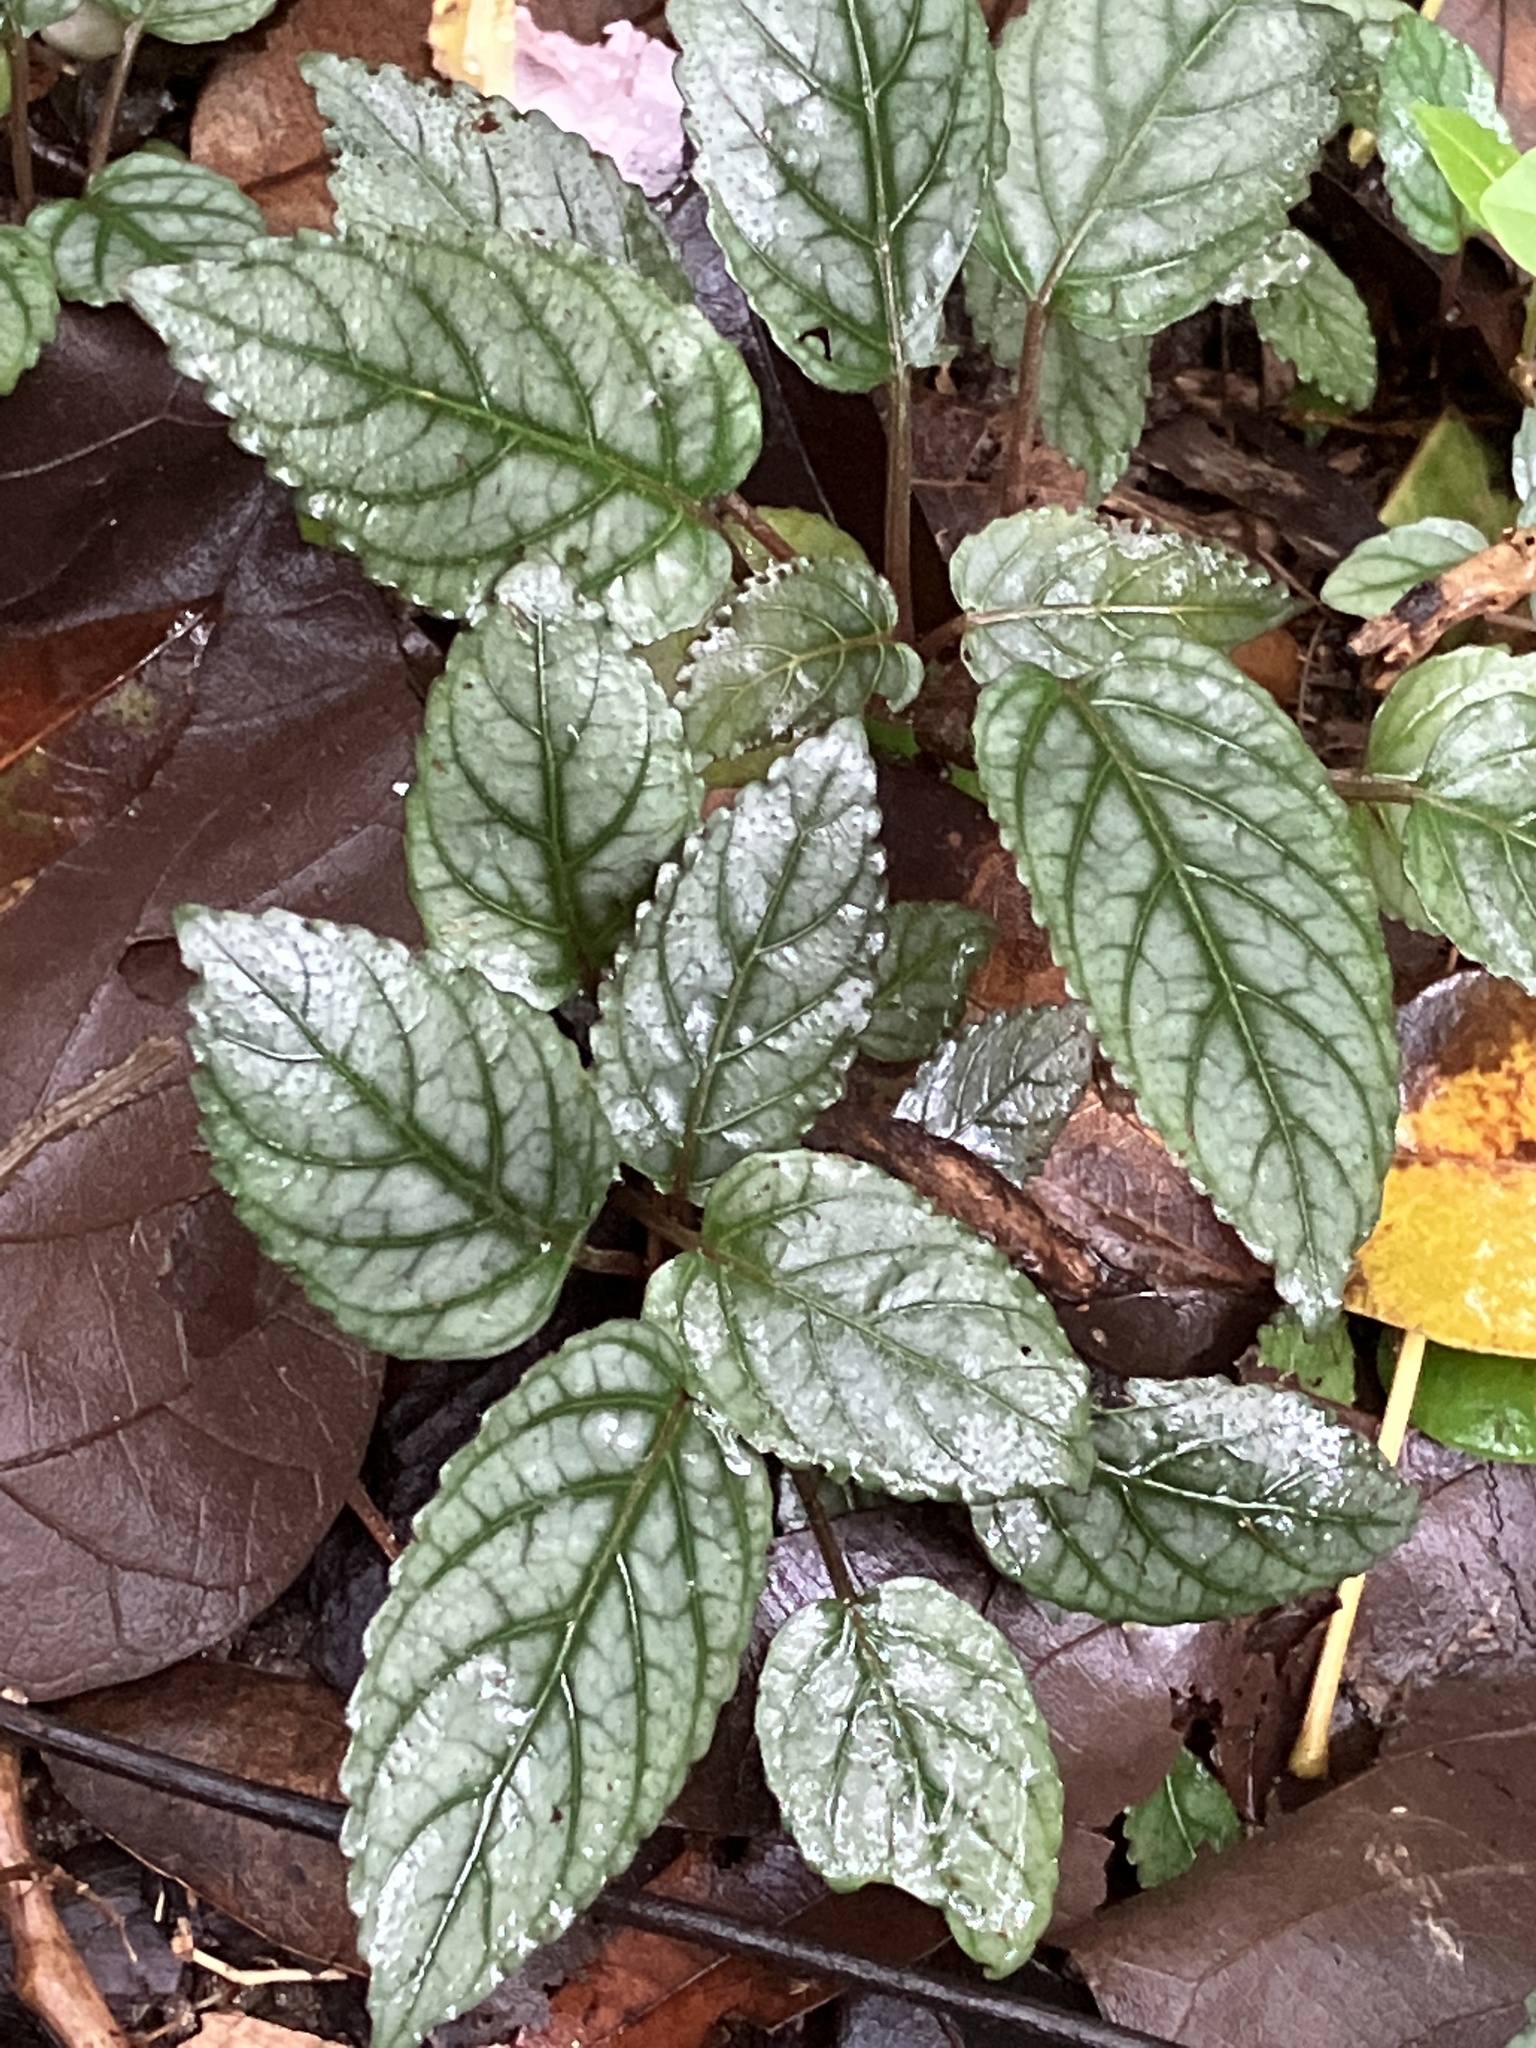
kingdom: Plantae
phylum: Tracheophyta
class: Magnoliopsida
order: Lamiales
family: Acanthaceae
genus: Strobilanthes
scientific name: Strobilanthes alternata
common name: Red ivy
